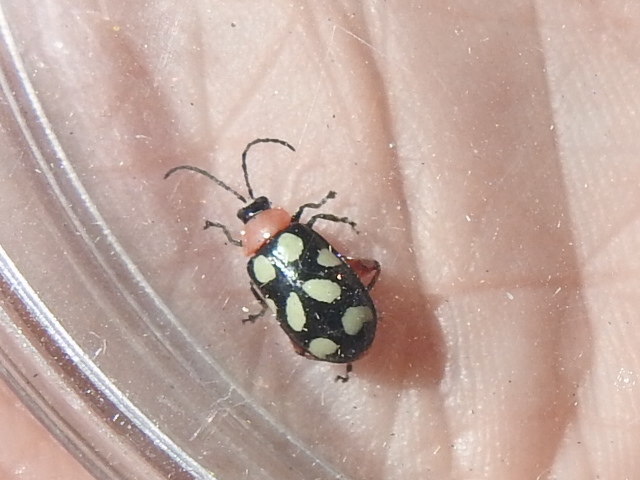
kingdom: Animalia
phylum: Arthropoda
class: Insecta
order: Coleoptera
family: Chrysomelidae
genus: Omophoita
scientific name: Omophoita cyanipennis
